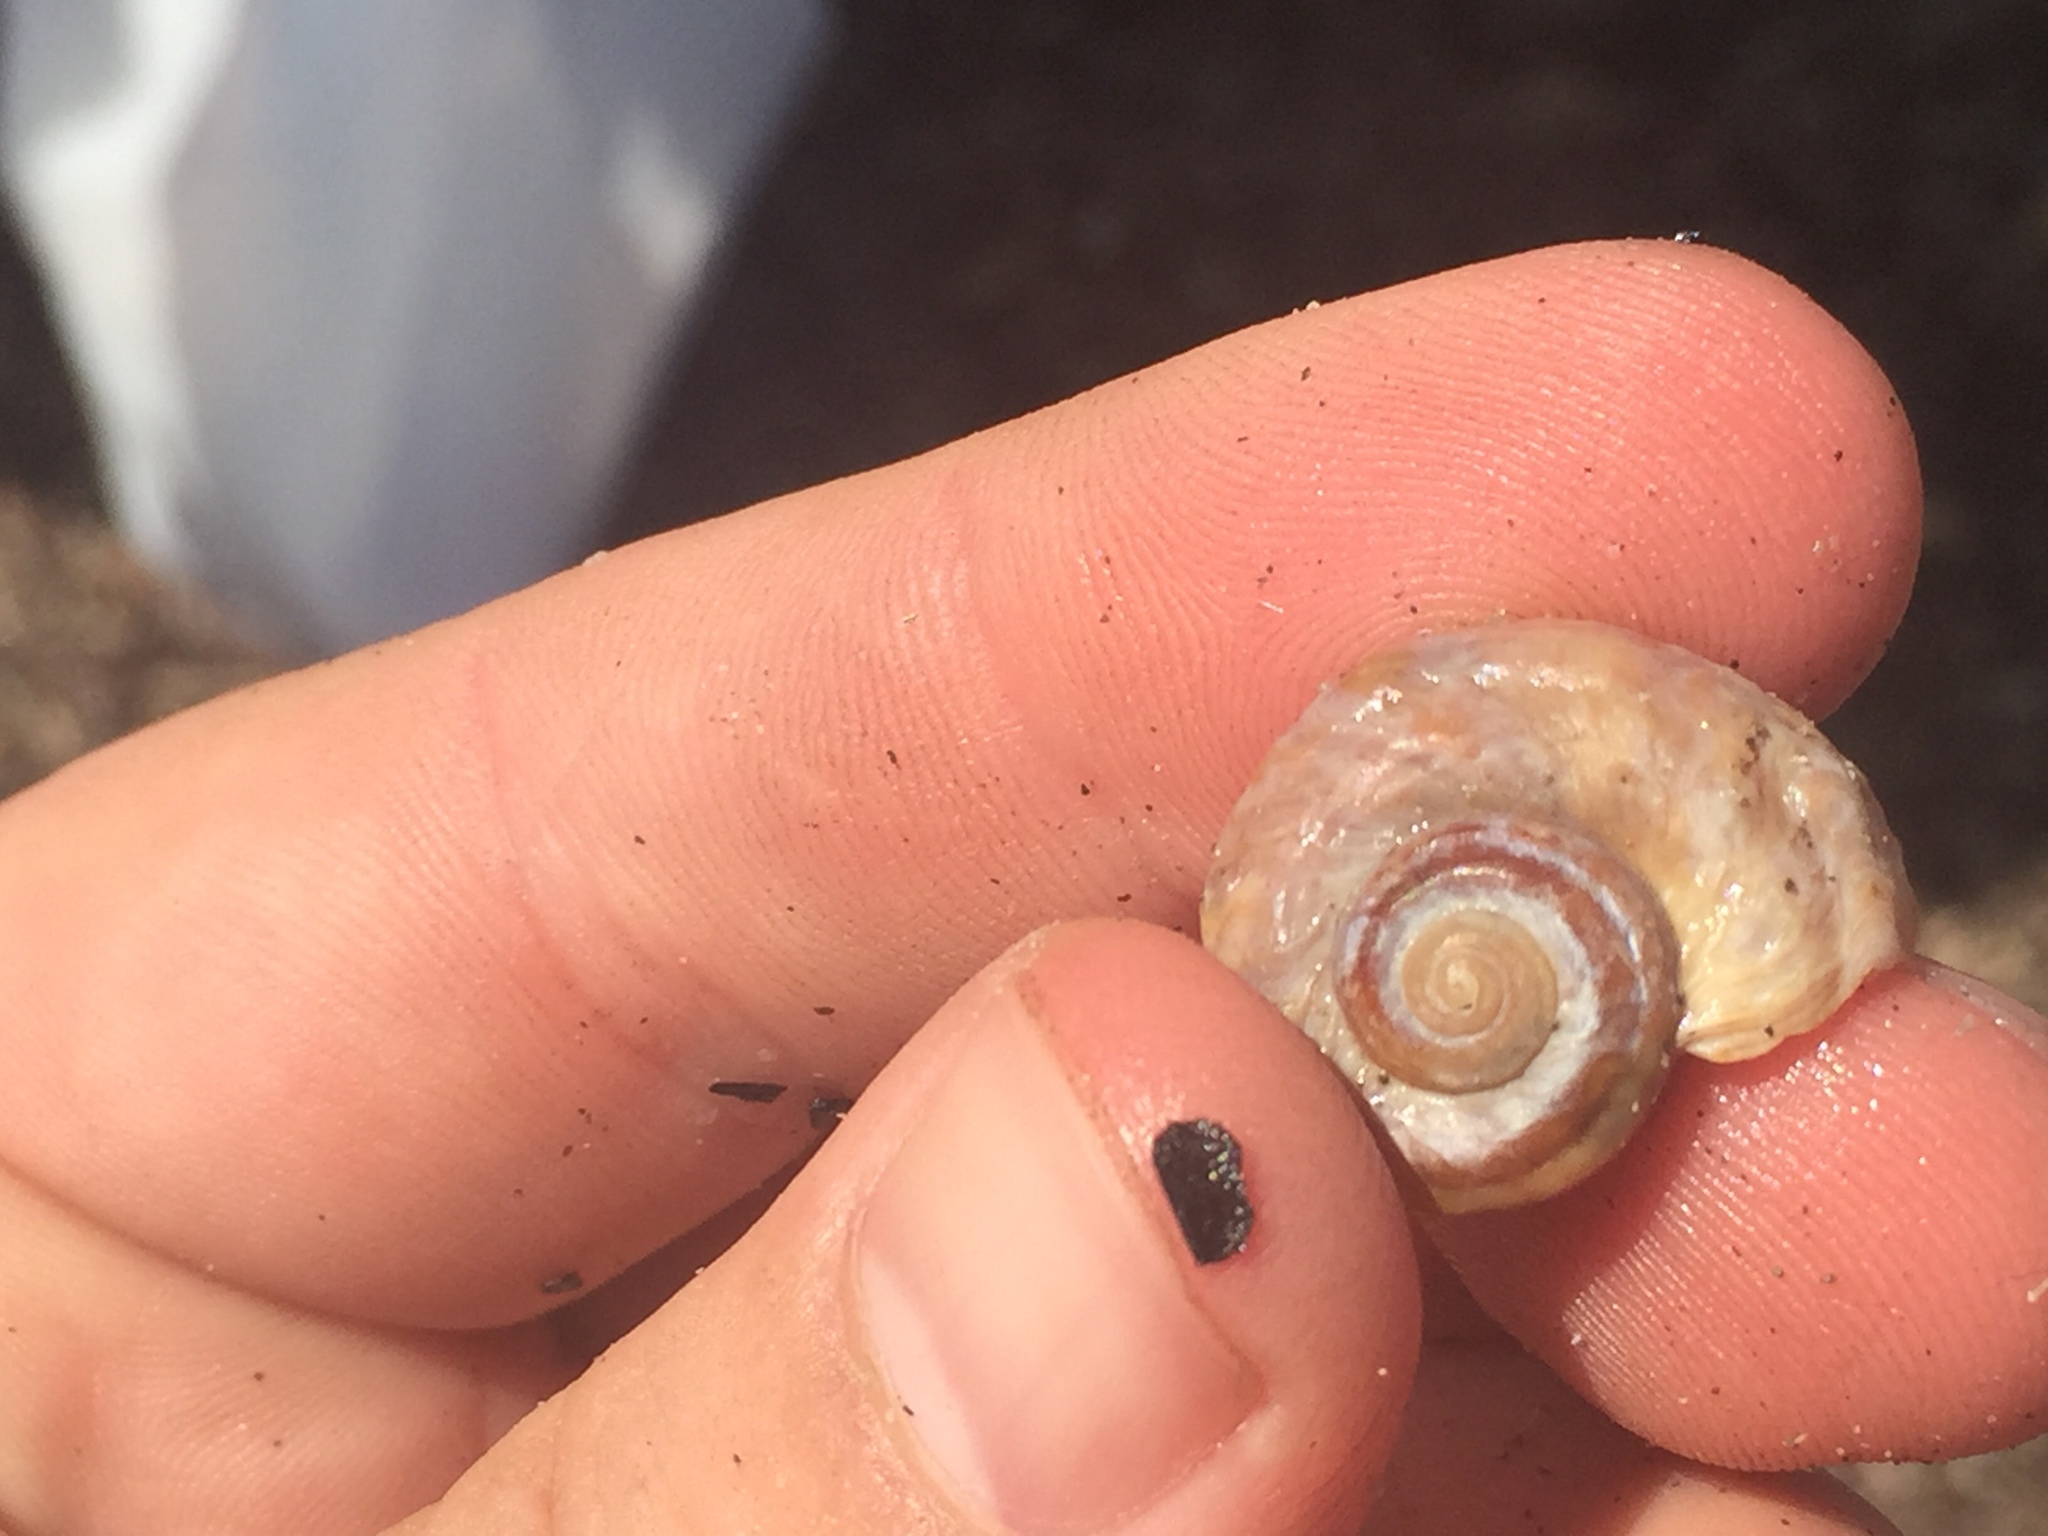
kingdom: Animalia
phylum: Mollusca
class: Gastropoda
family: Amphibolidae
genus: Amphibola
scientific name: Amphibola crenata
